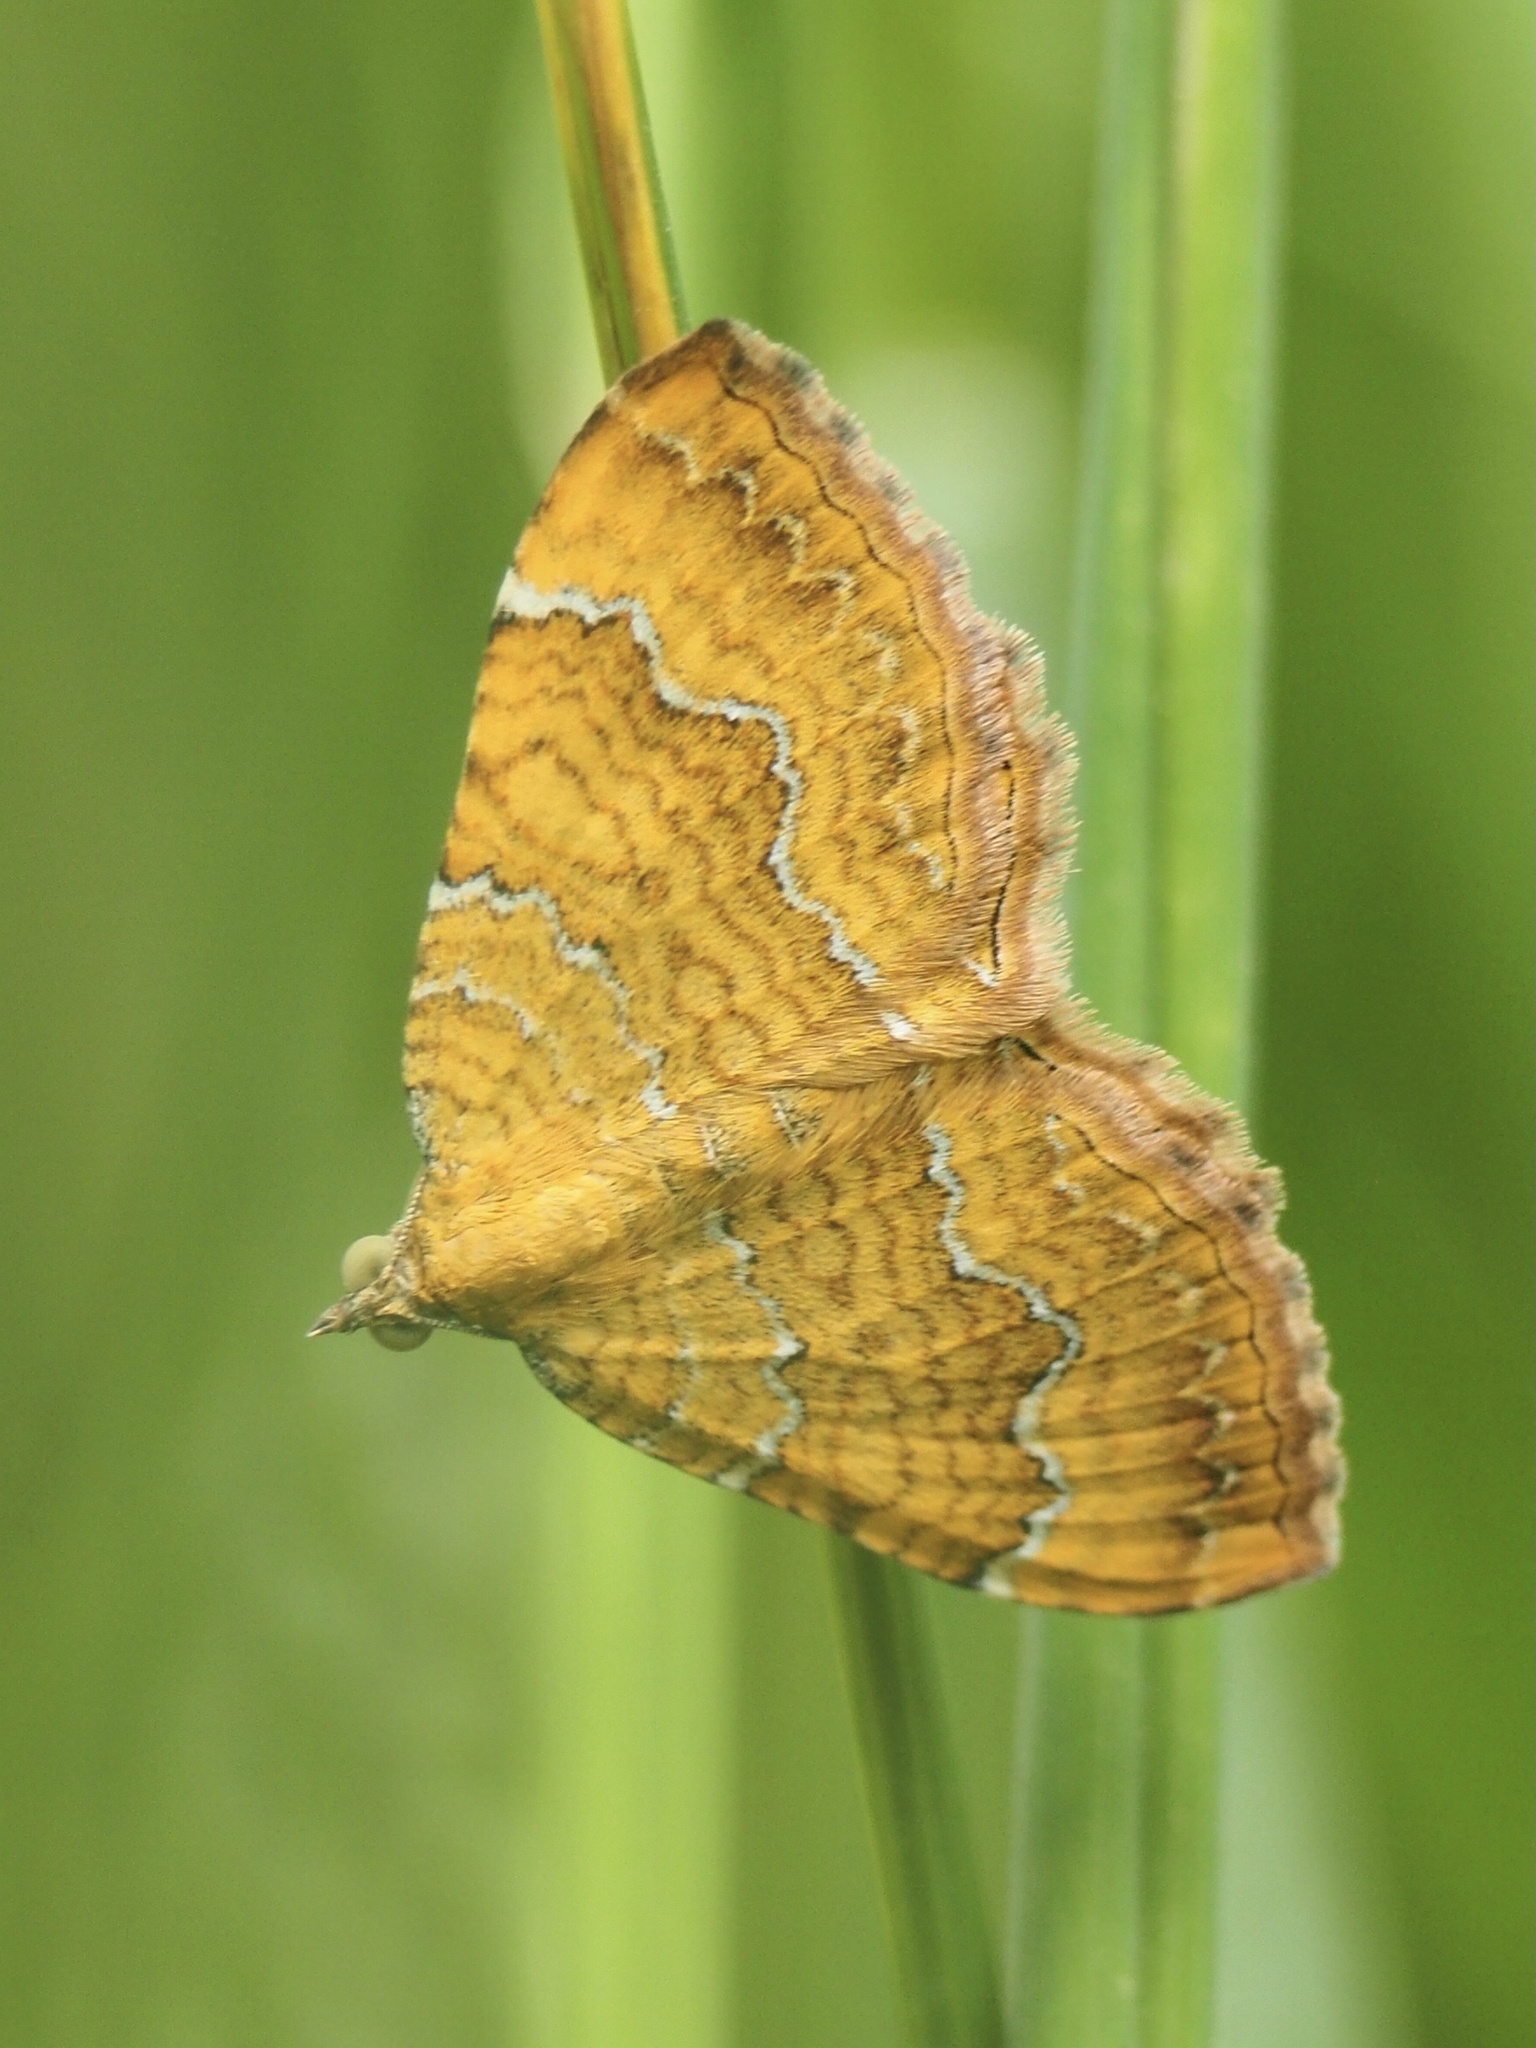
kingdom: Animalia
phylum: Arthropoda
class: Insecta
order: Lepidoptera
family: Geometridae
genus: Camptogramma
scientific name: Camptogramma bilineata
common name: Yellow shell
